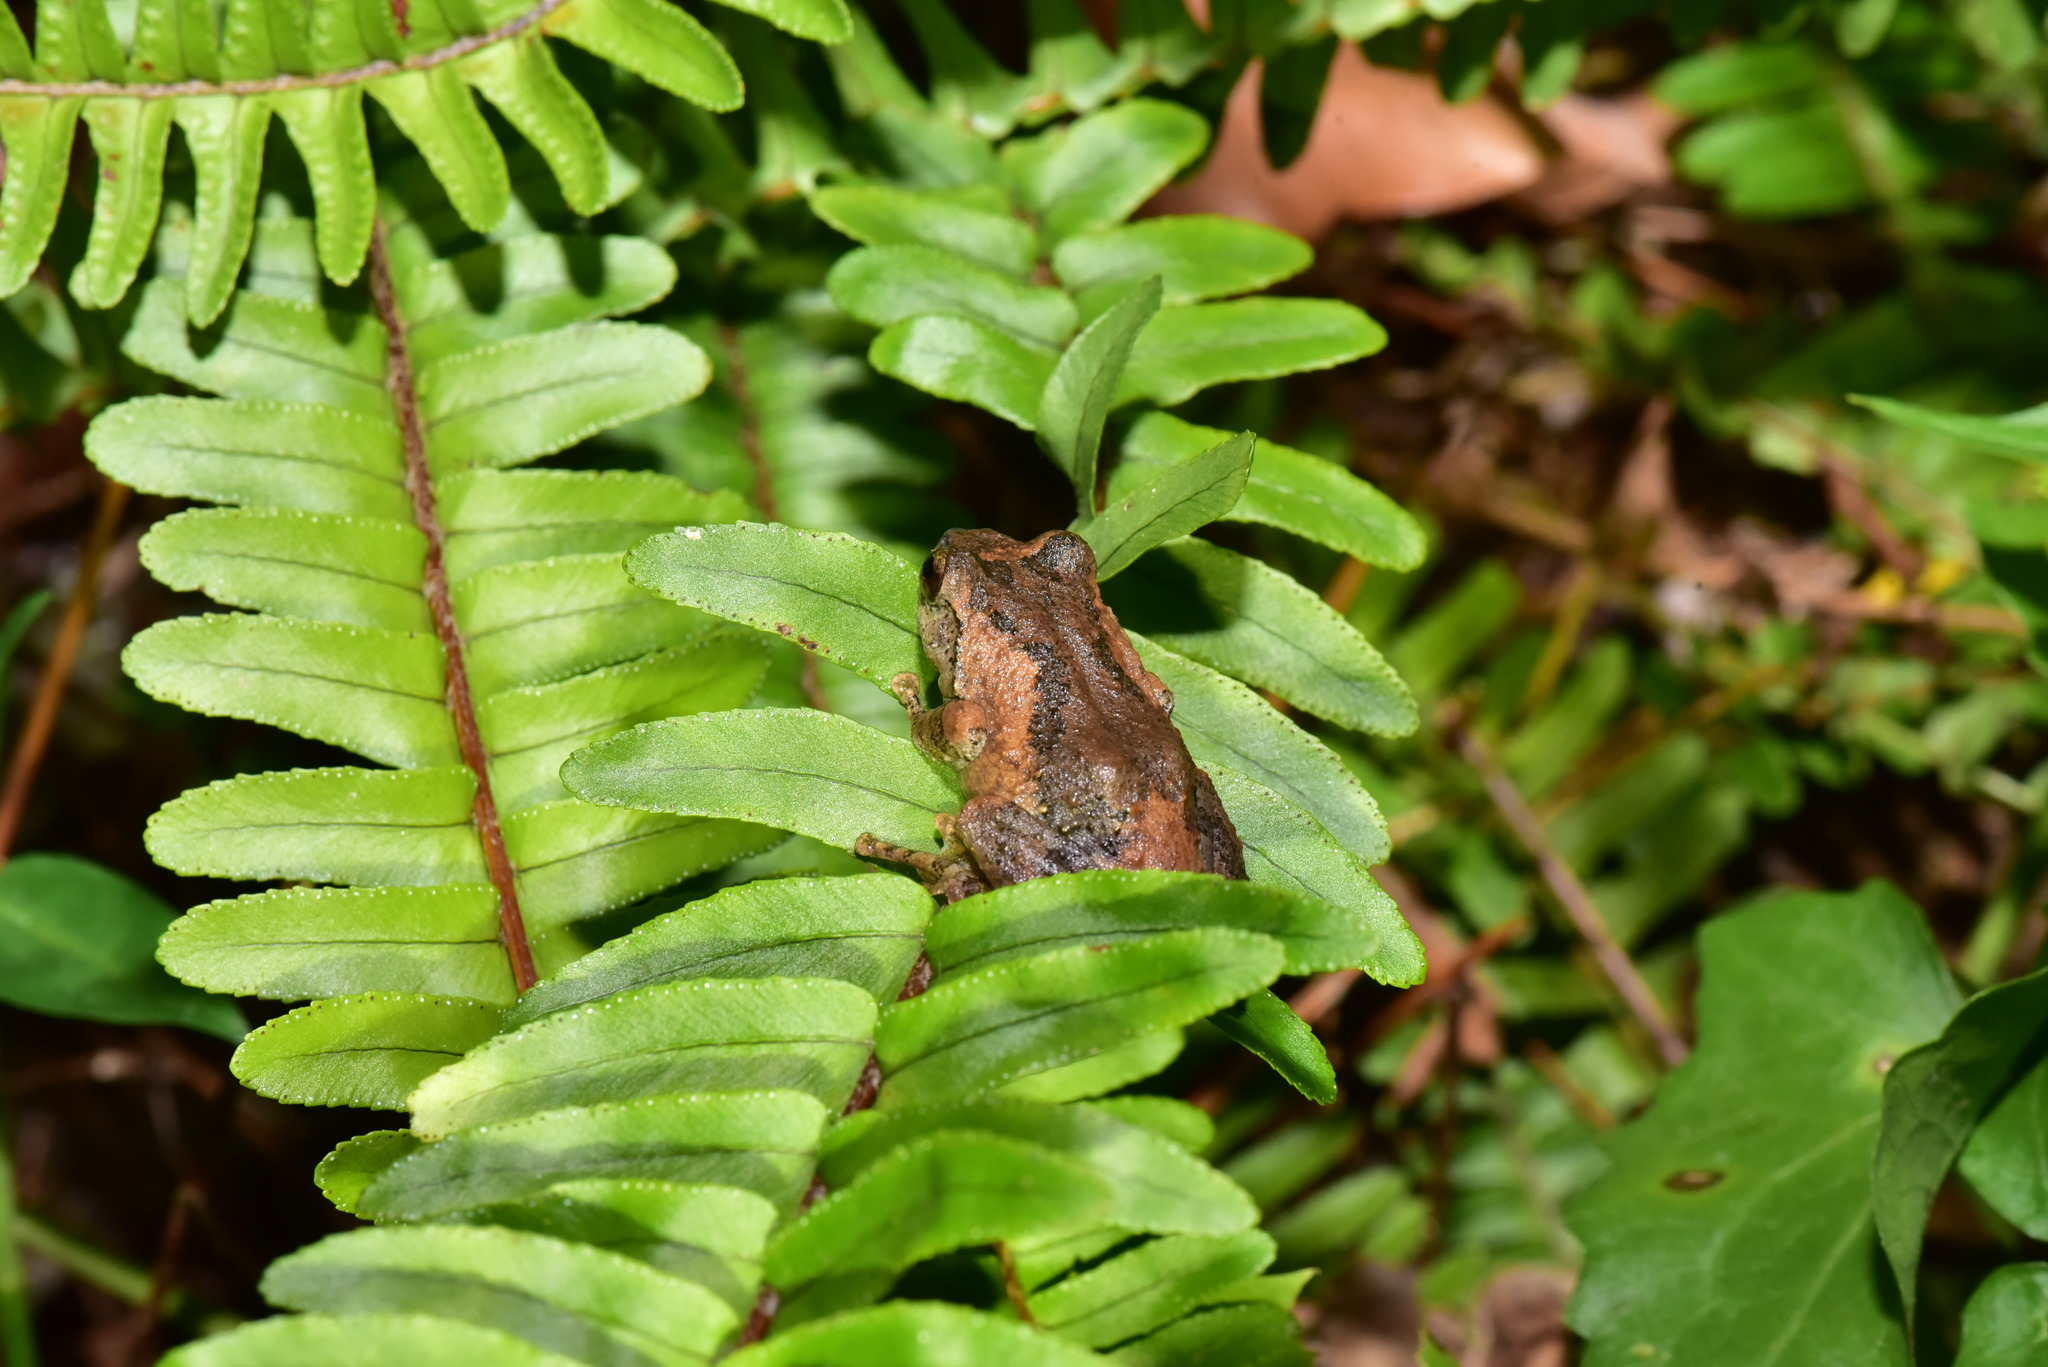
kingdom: Animalia
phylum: Chordata
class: Amphibia
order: Anura
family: Rhacophoridae
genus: Kurixalus
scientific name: Kurixalus idiootocus
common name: Temple treefrog
